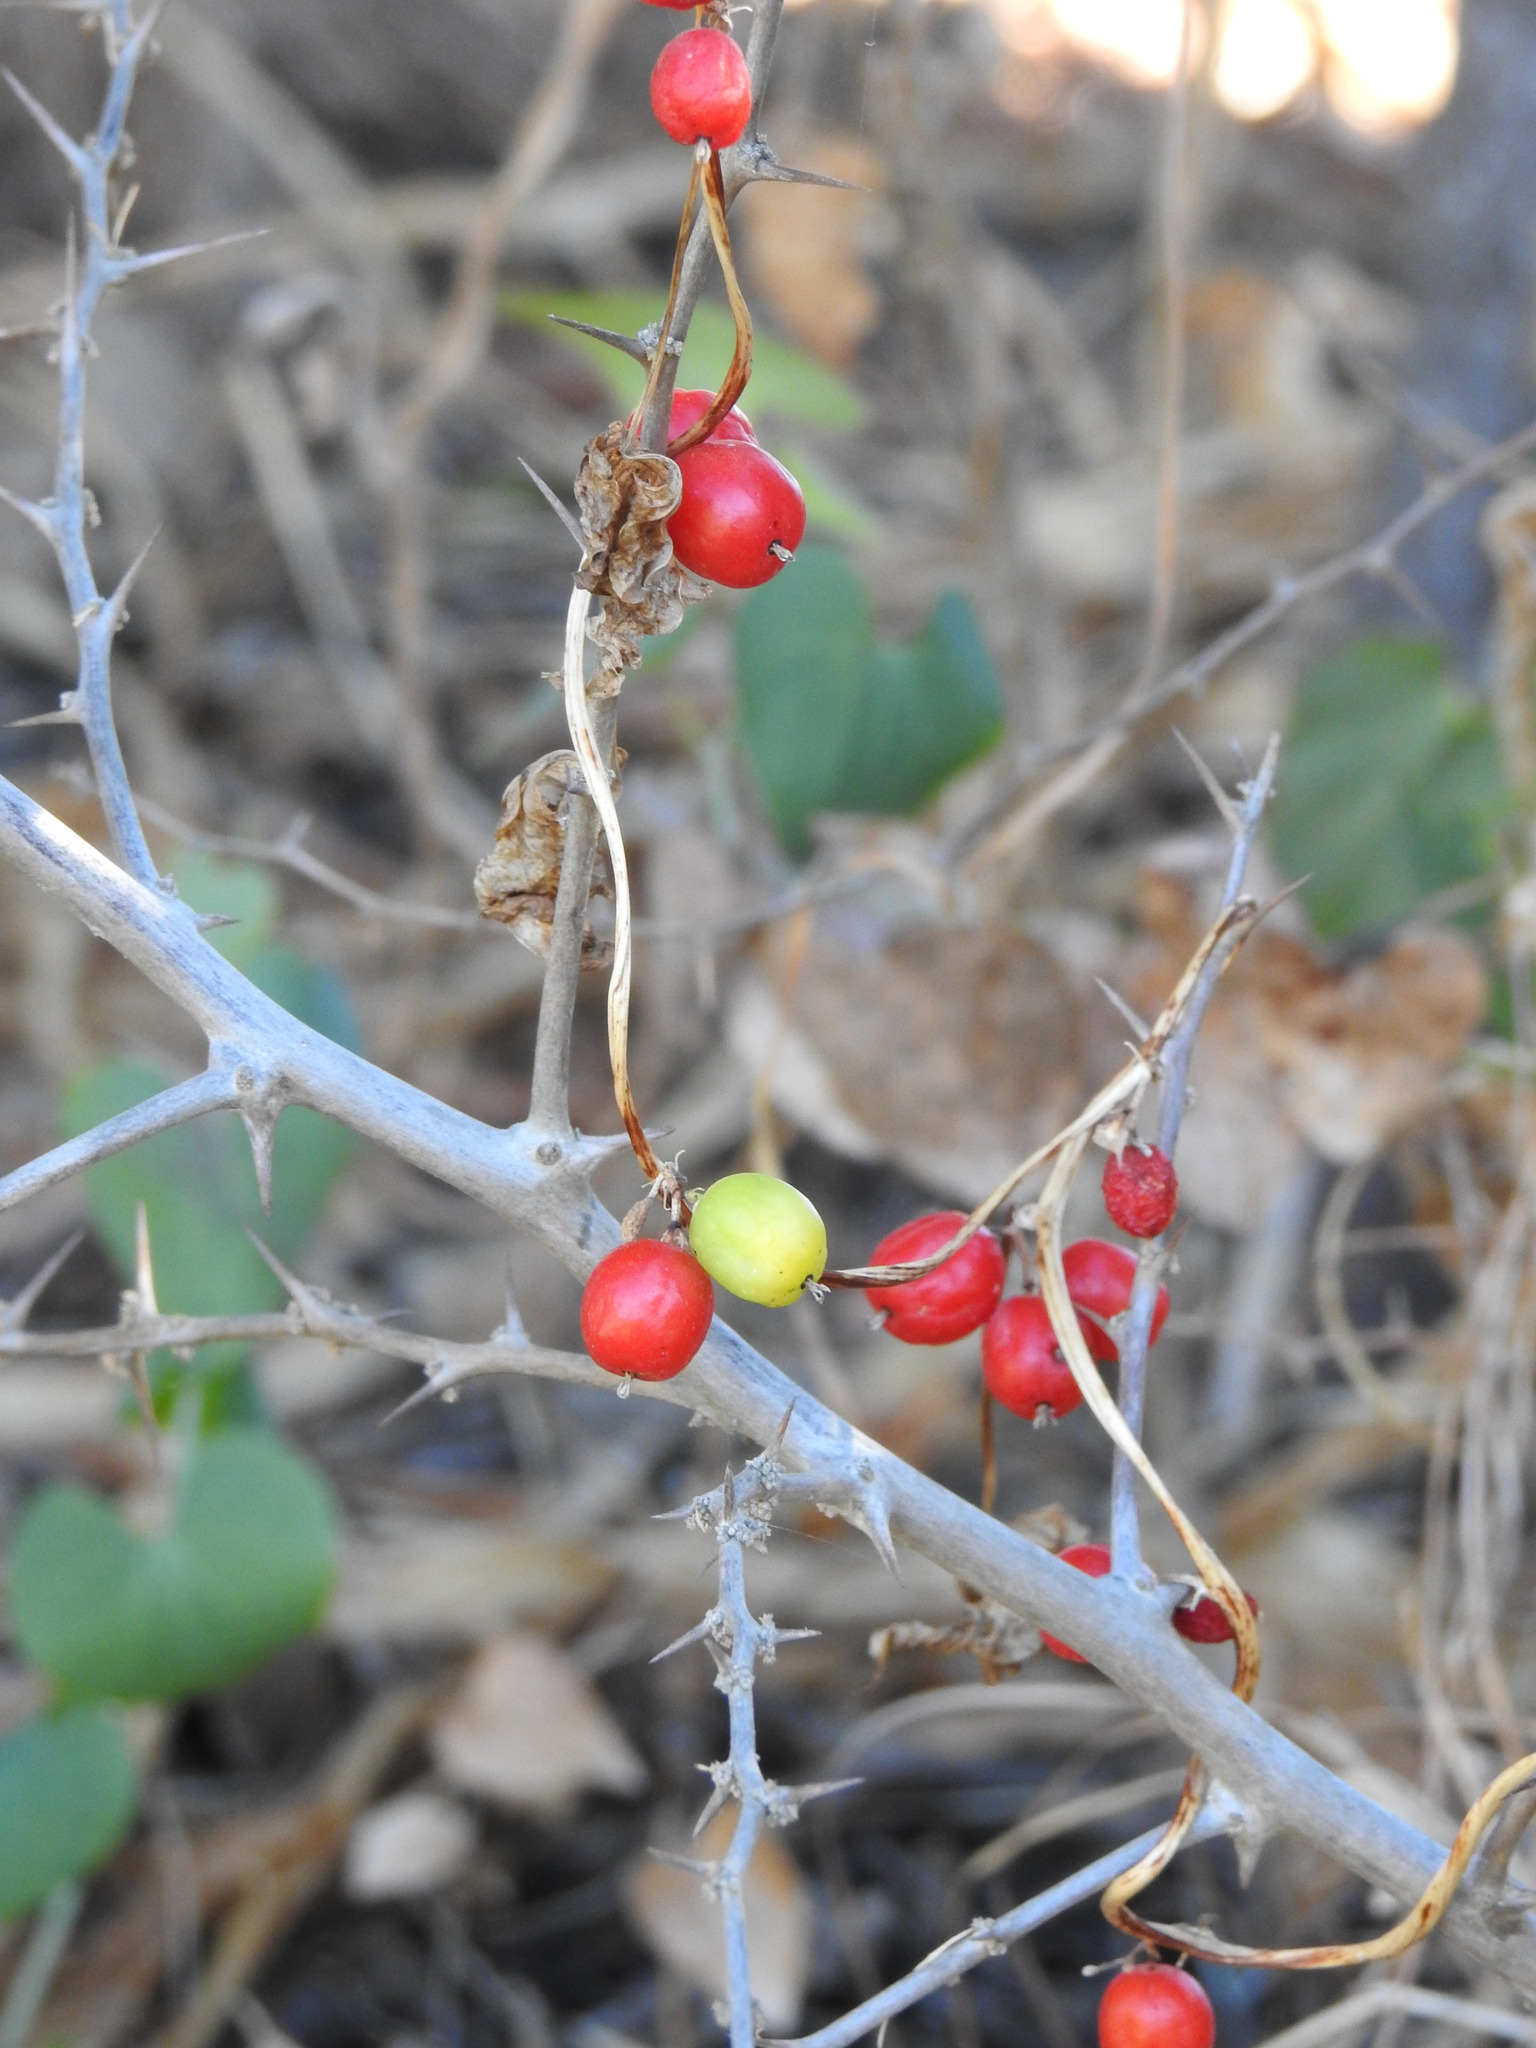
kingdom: Plantae
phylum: Tracheophyta
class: Liliopsida
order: Dioscoreales
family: Dioscoreaceae
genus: Dioscorea
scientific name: Dioscorea communis
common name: Black-bindweed
